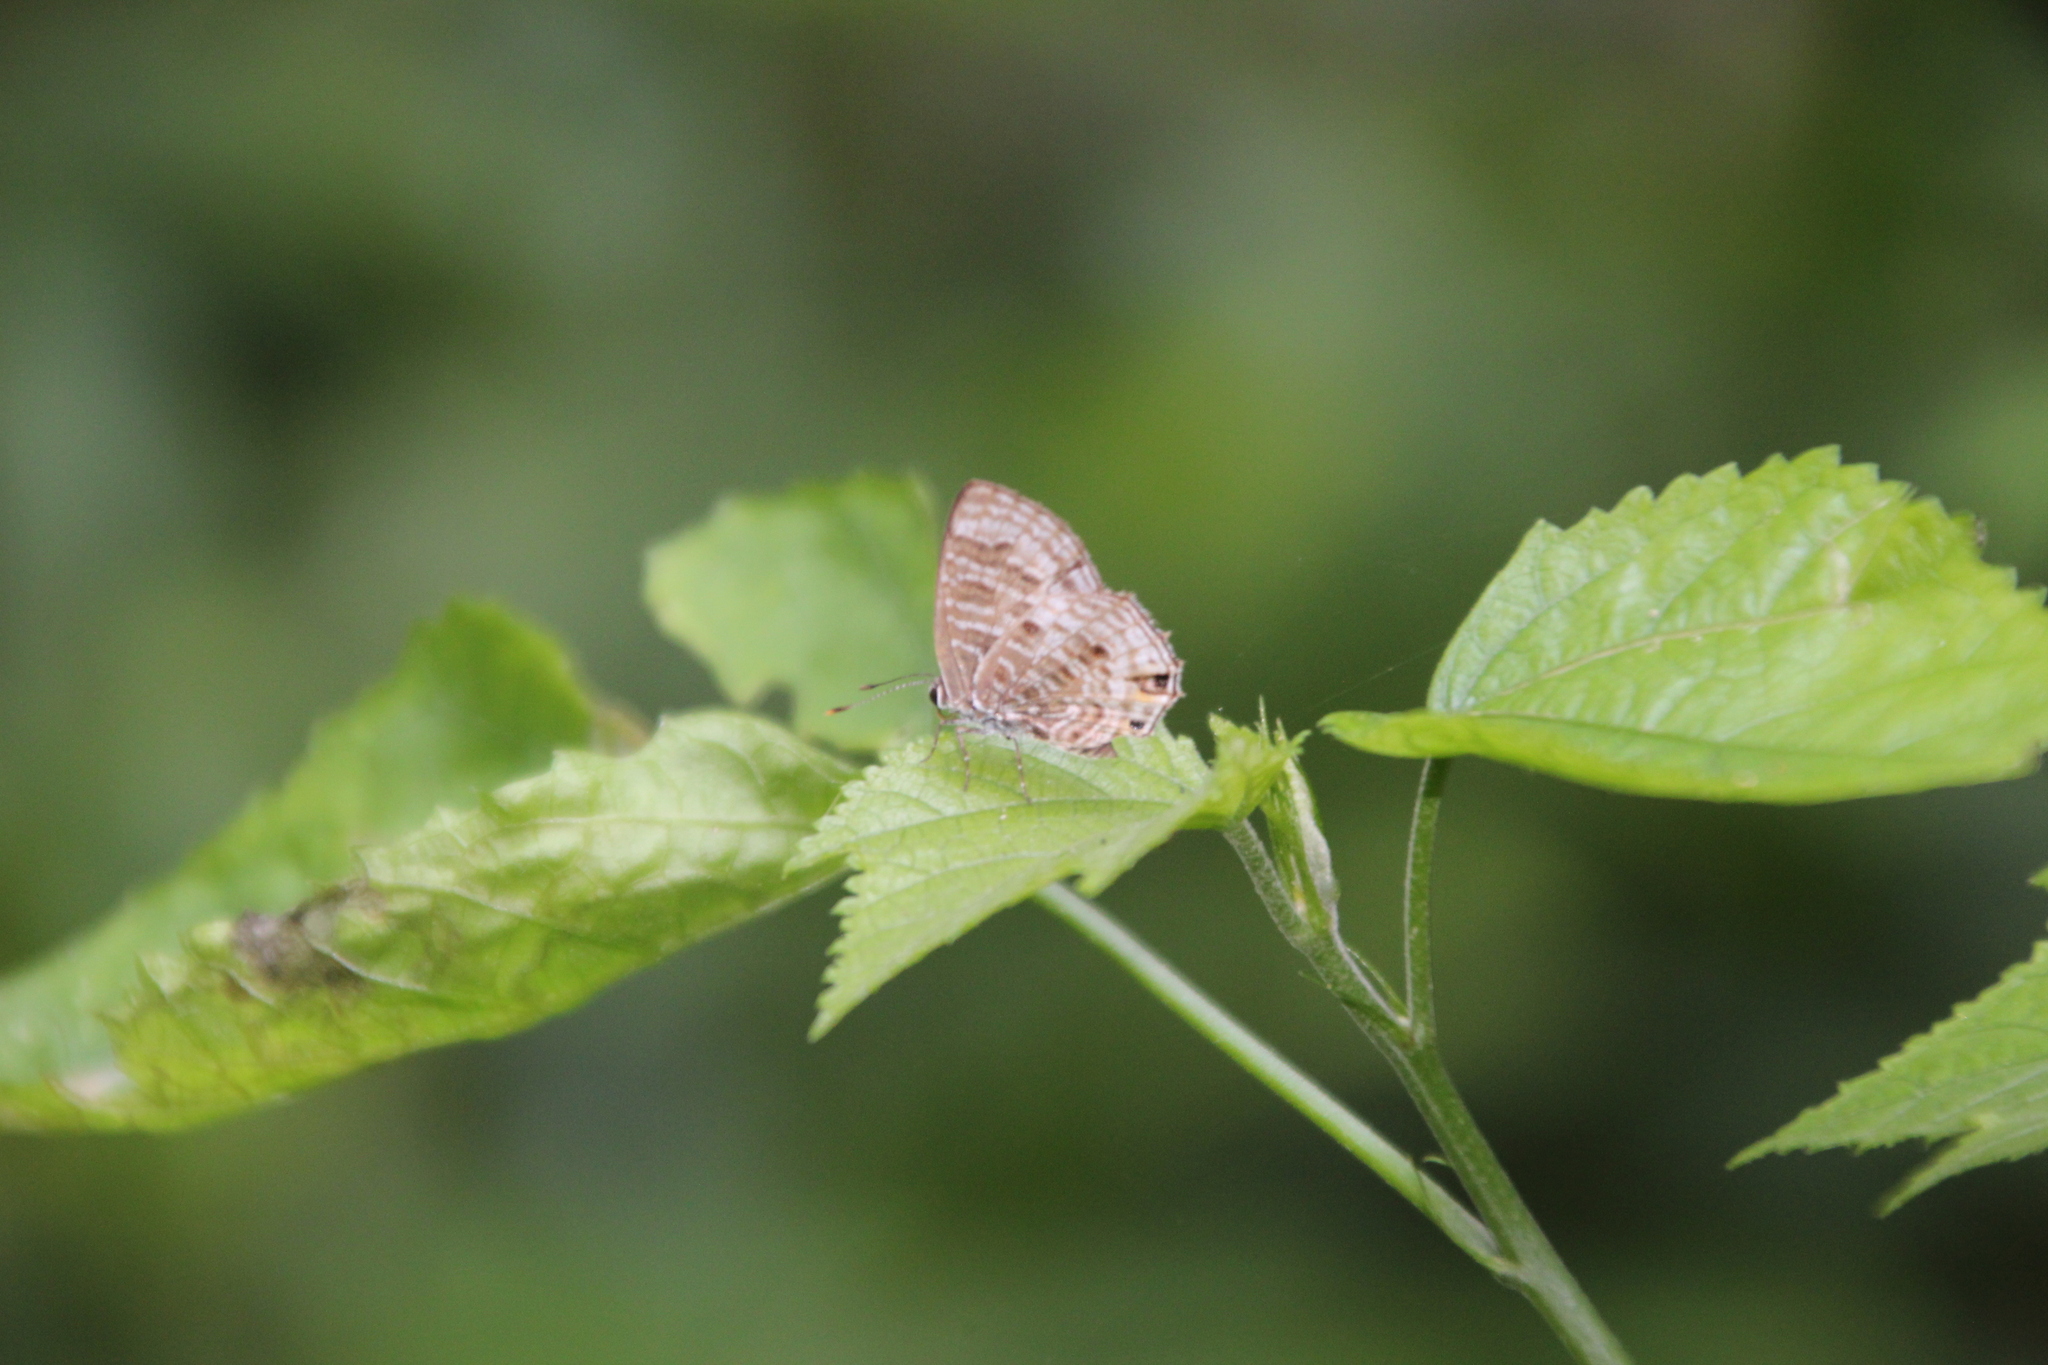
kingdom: Animalia
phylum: Arthropoda
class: Insecta
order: Lepidoptera
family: Lycaenidae
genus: Anthene
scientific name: Anthene larydas
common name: Forest hairtail
